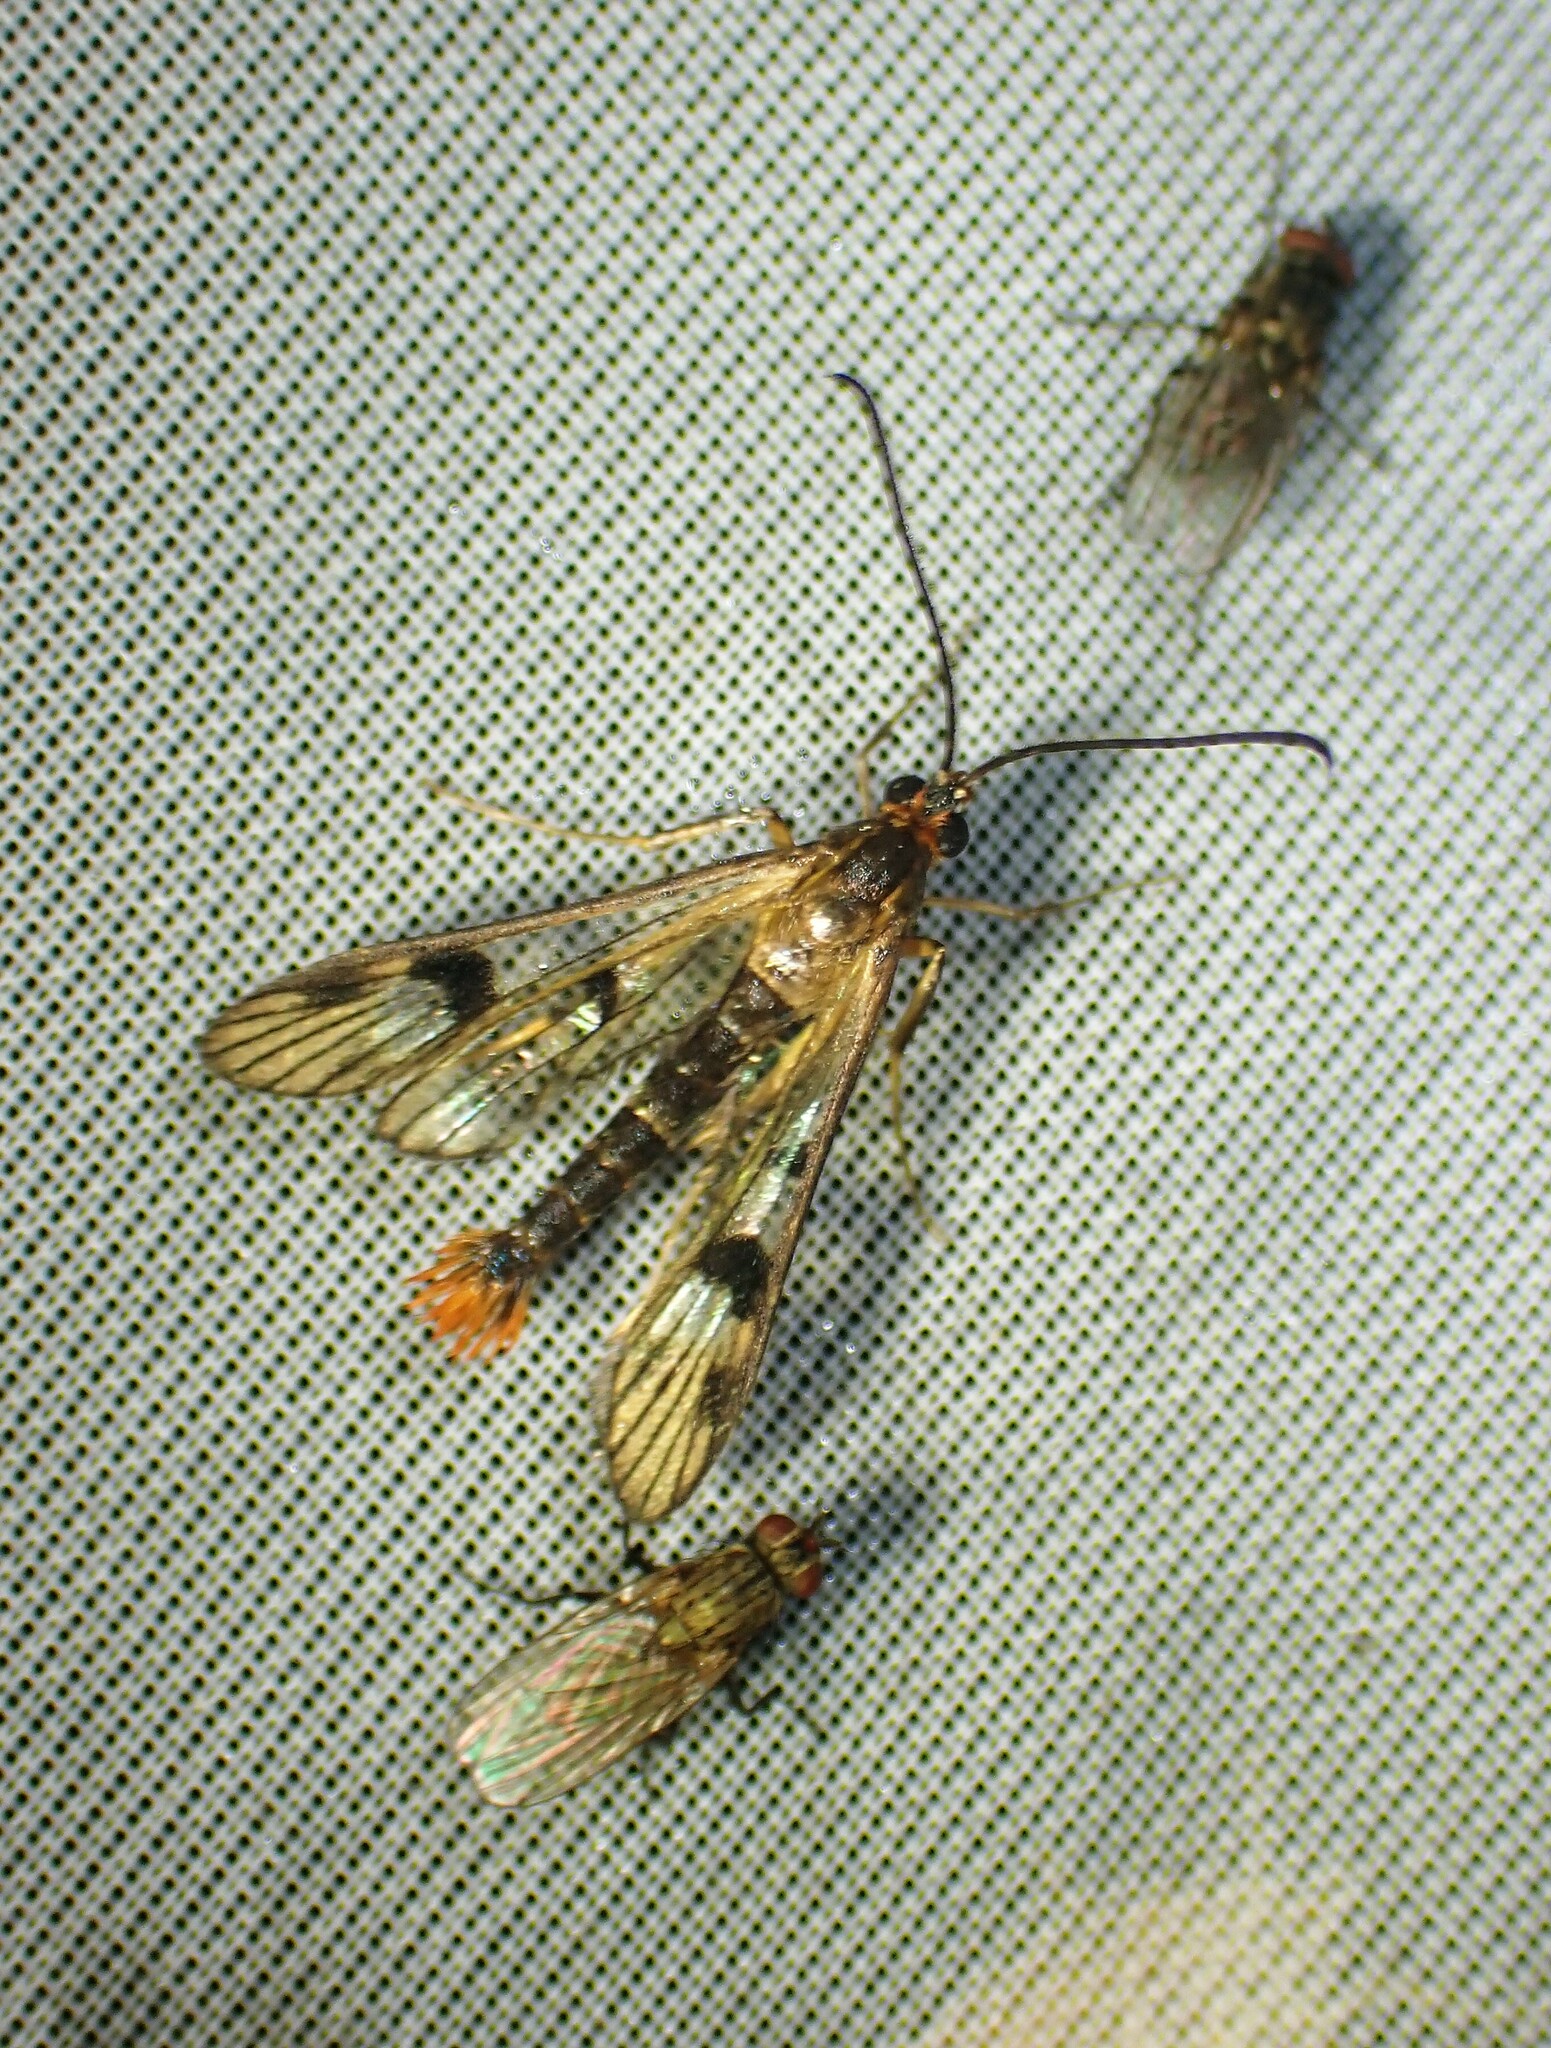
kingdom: Animalia
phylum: Arthropoda
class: Insecta
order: Lepidoptera
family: Sesiidae
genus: Synanthedon
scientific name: Synanthedon acerni
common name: Maple callus borer moth
